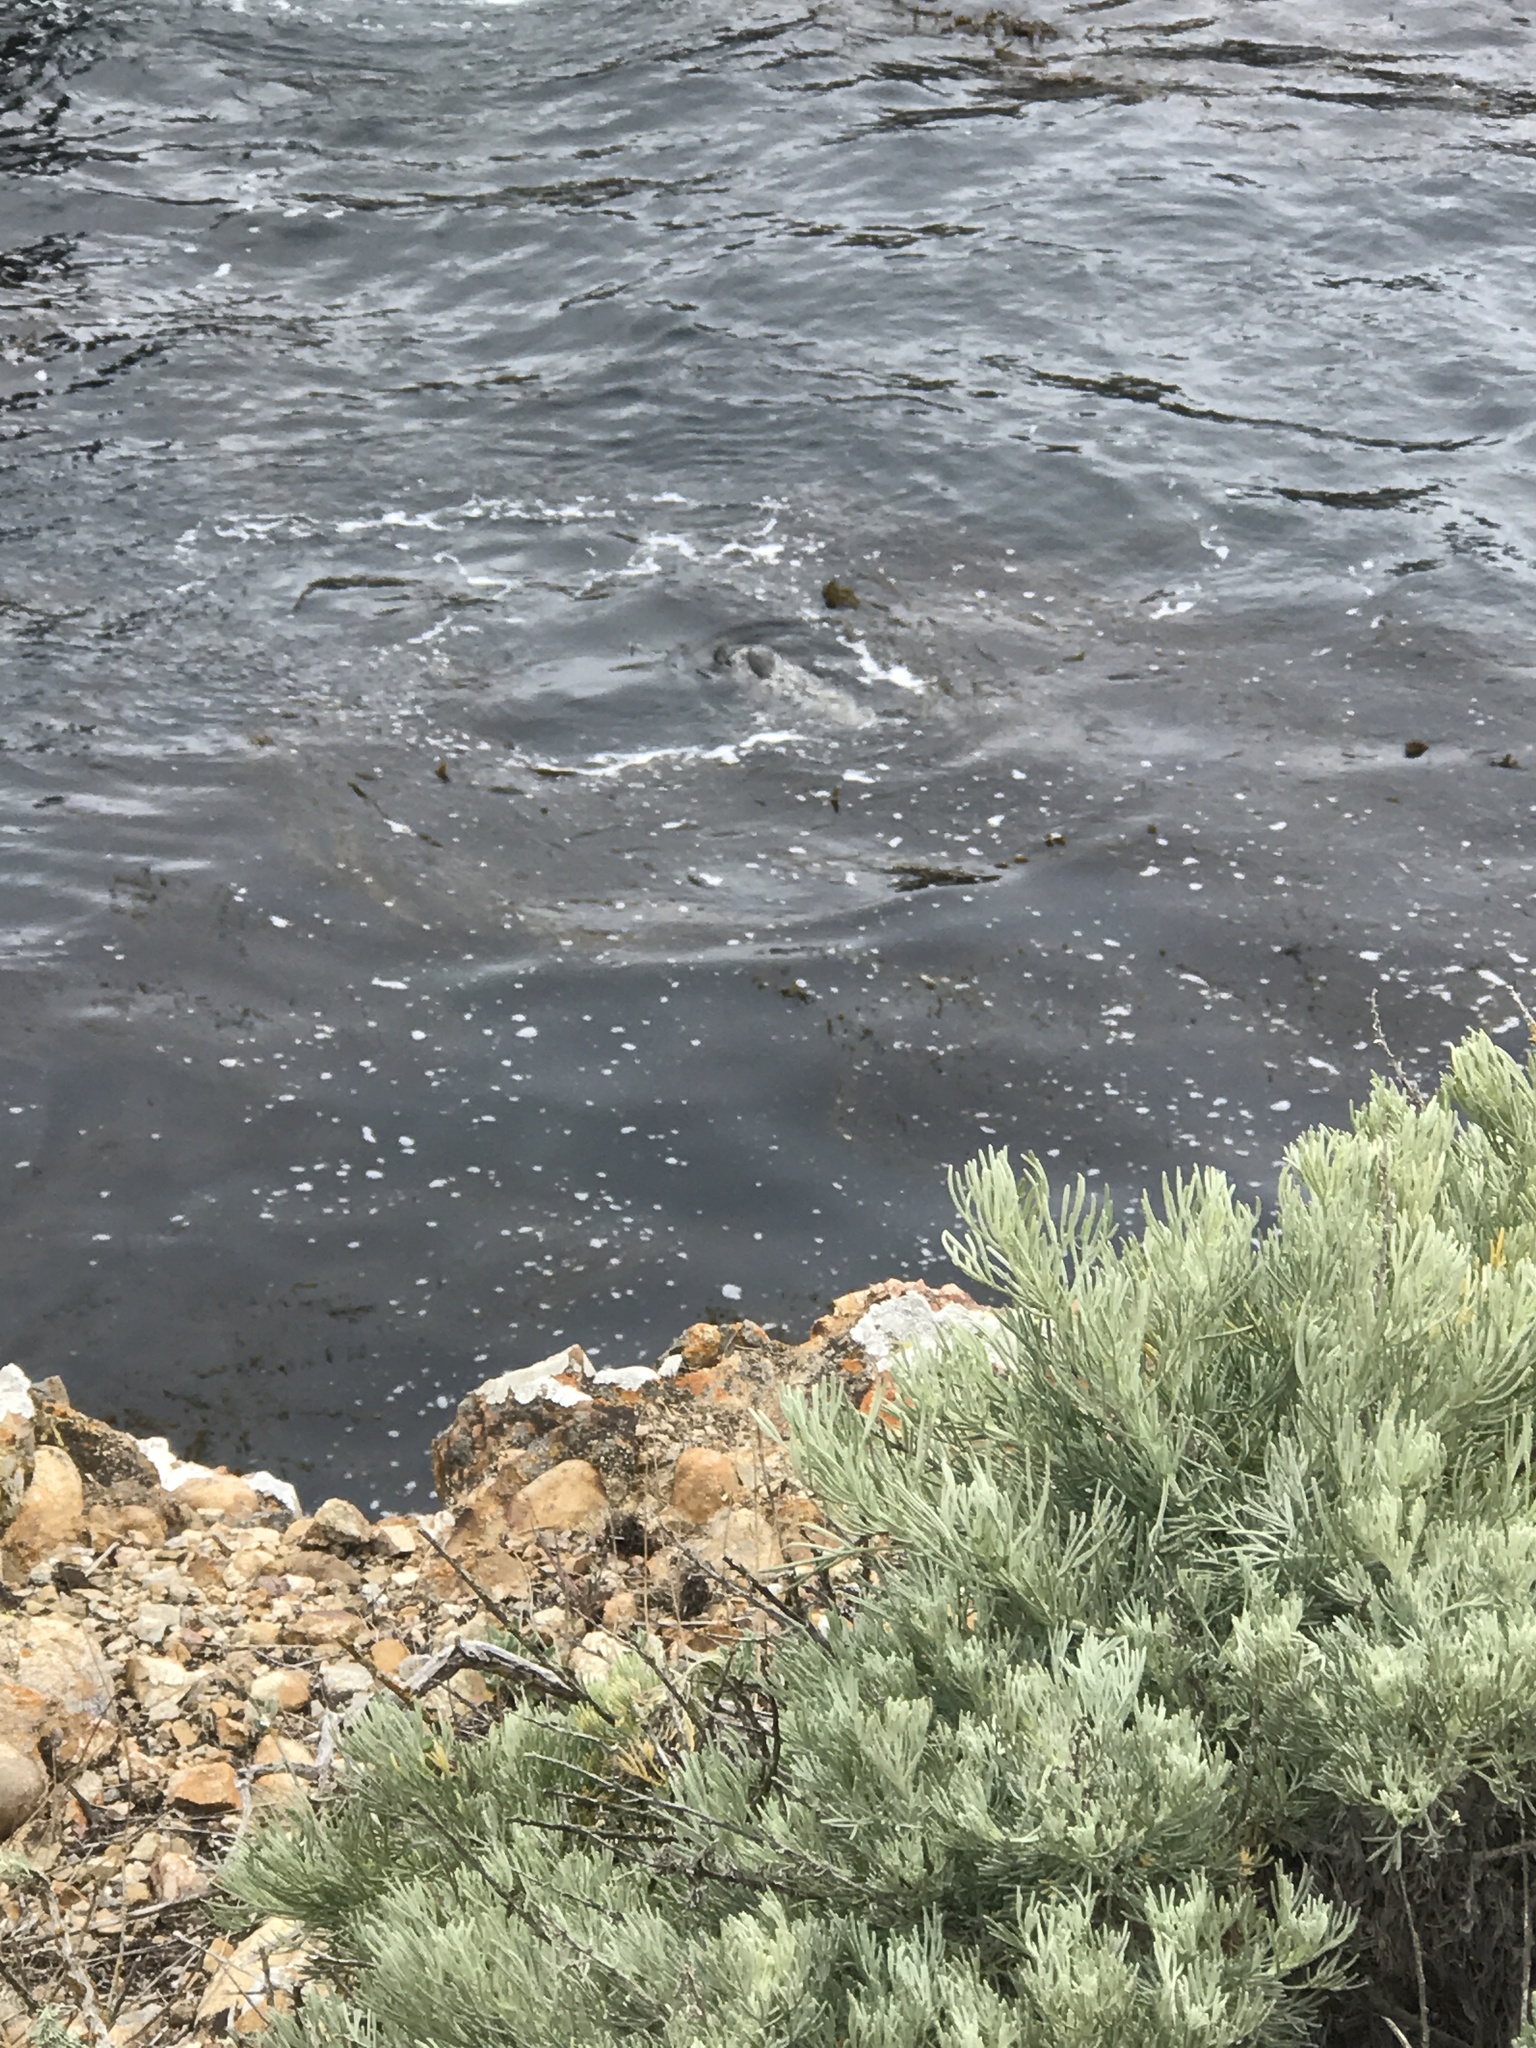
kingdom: Animalia
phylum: Chordata
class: Mammalia
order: Carnivora
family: Phocidae
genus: Phoca
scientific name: Phoca vitulina
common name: Harbor seal
